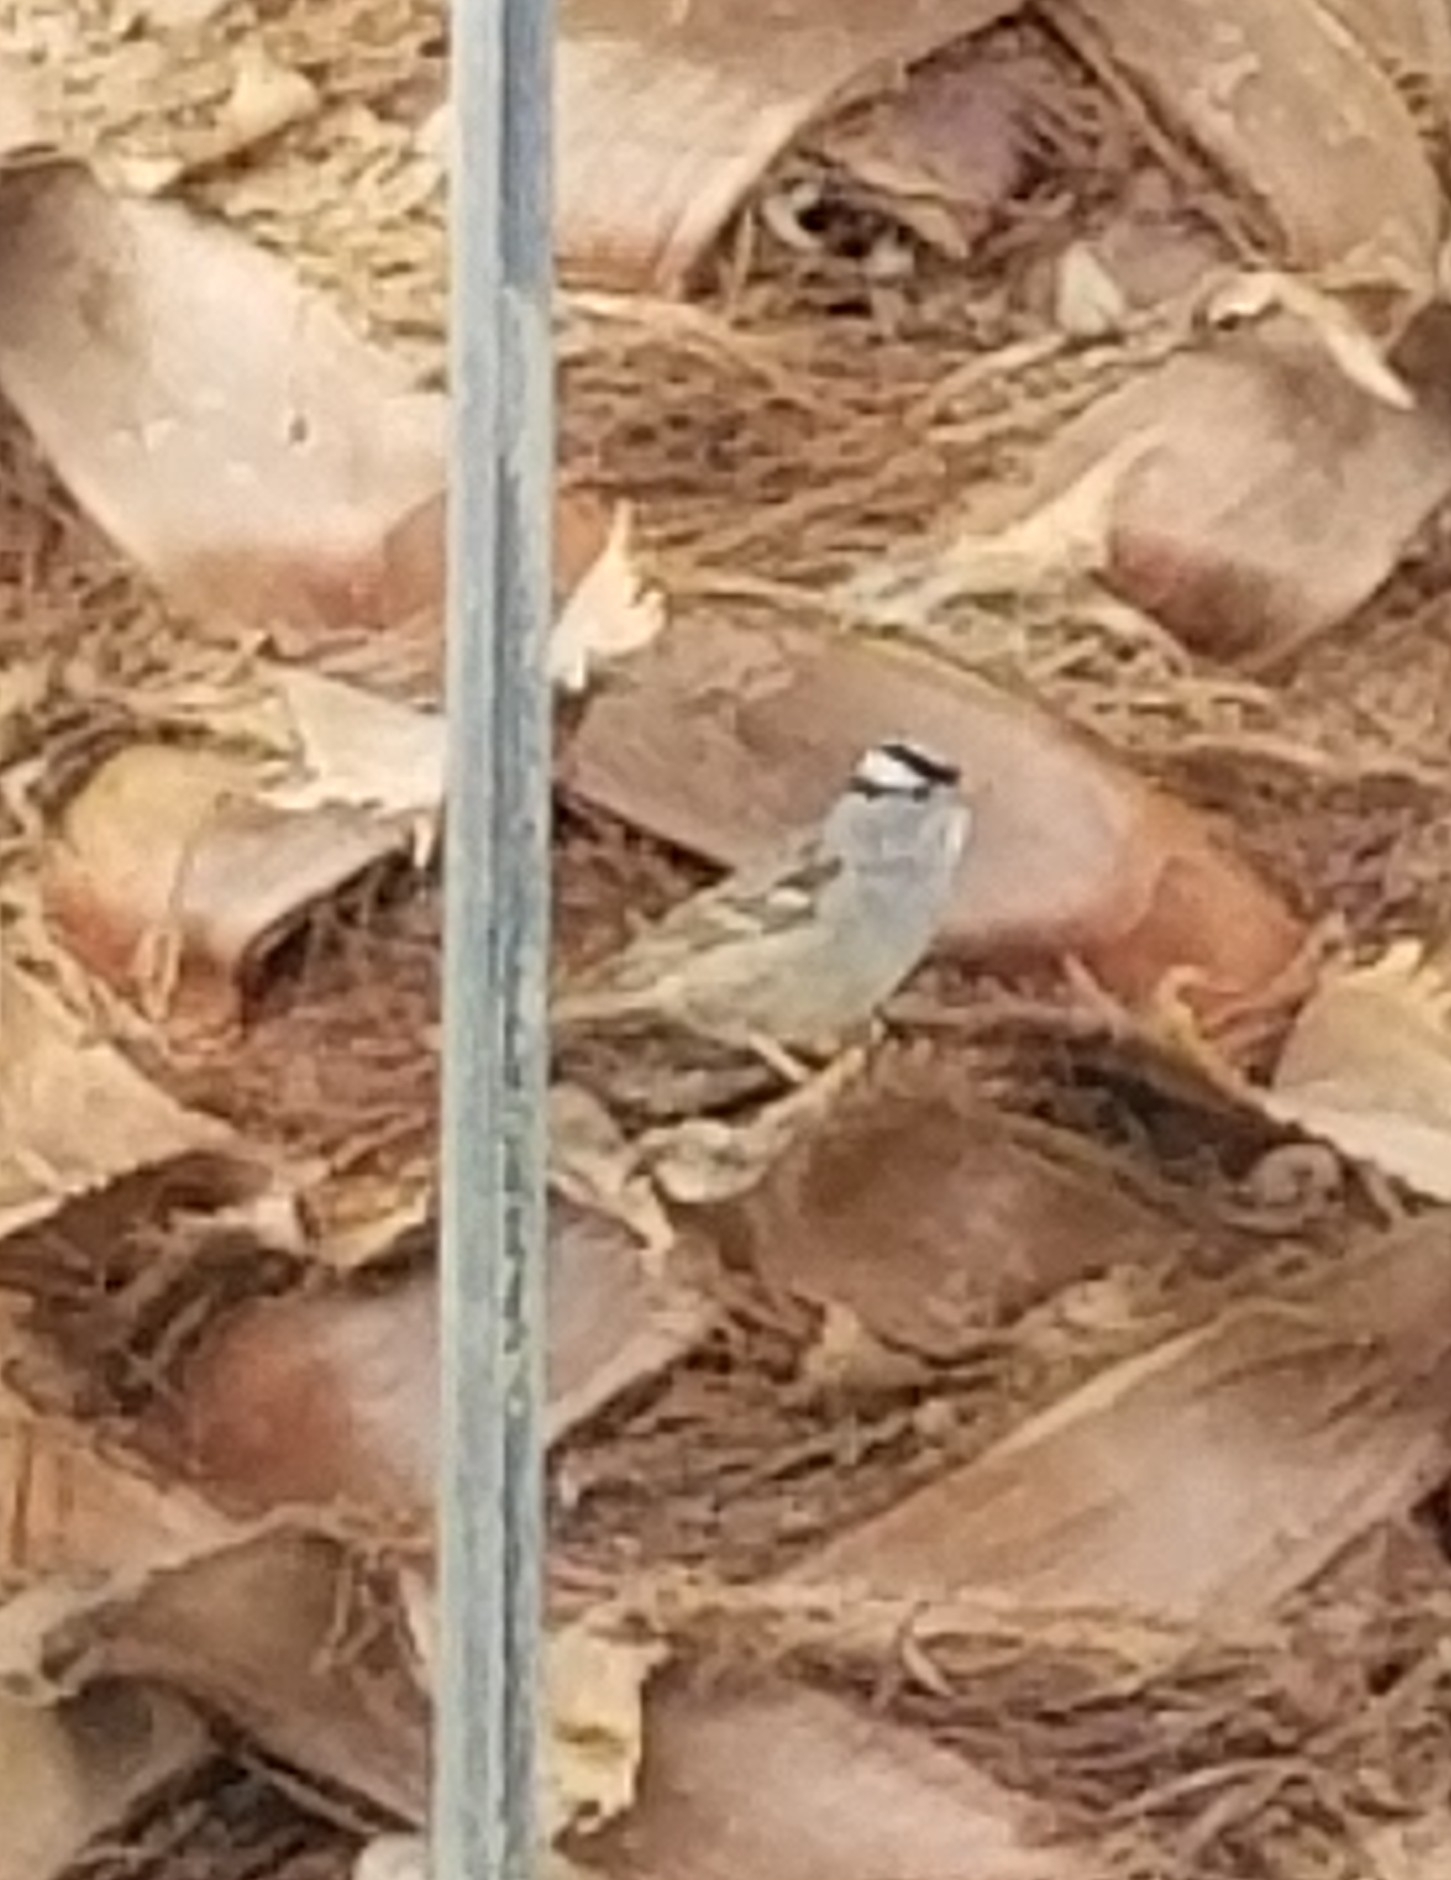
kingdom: Animalia
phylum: Chordata
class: Aves
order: Passeriformes
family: Passerellidae
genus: Zonotrichia
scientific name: Zonotrichia leucophrys
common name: White-crowned sparrow
